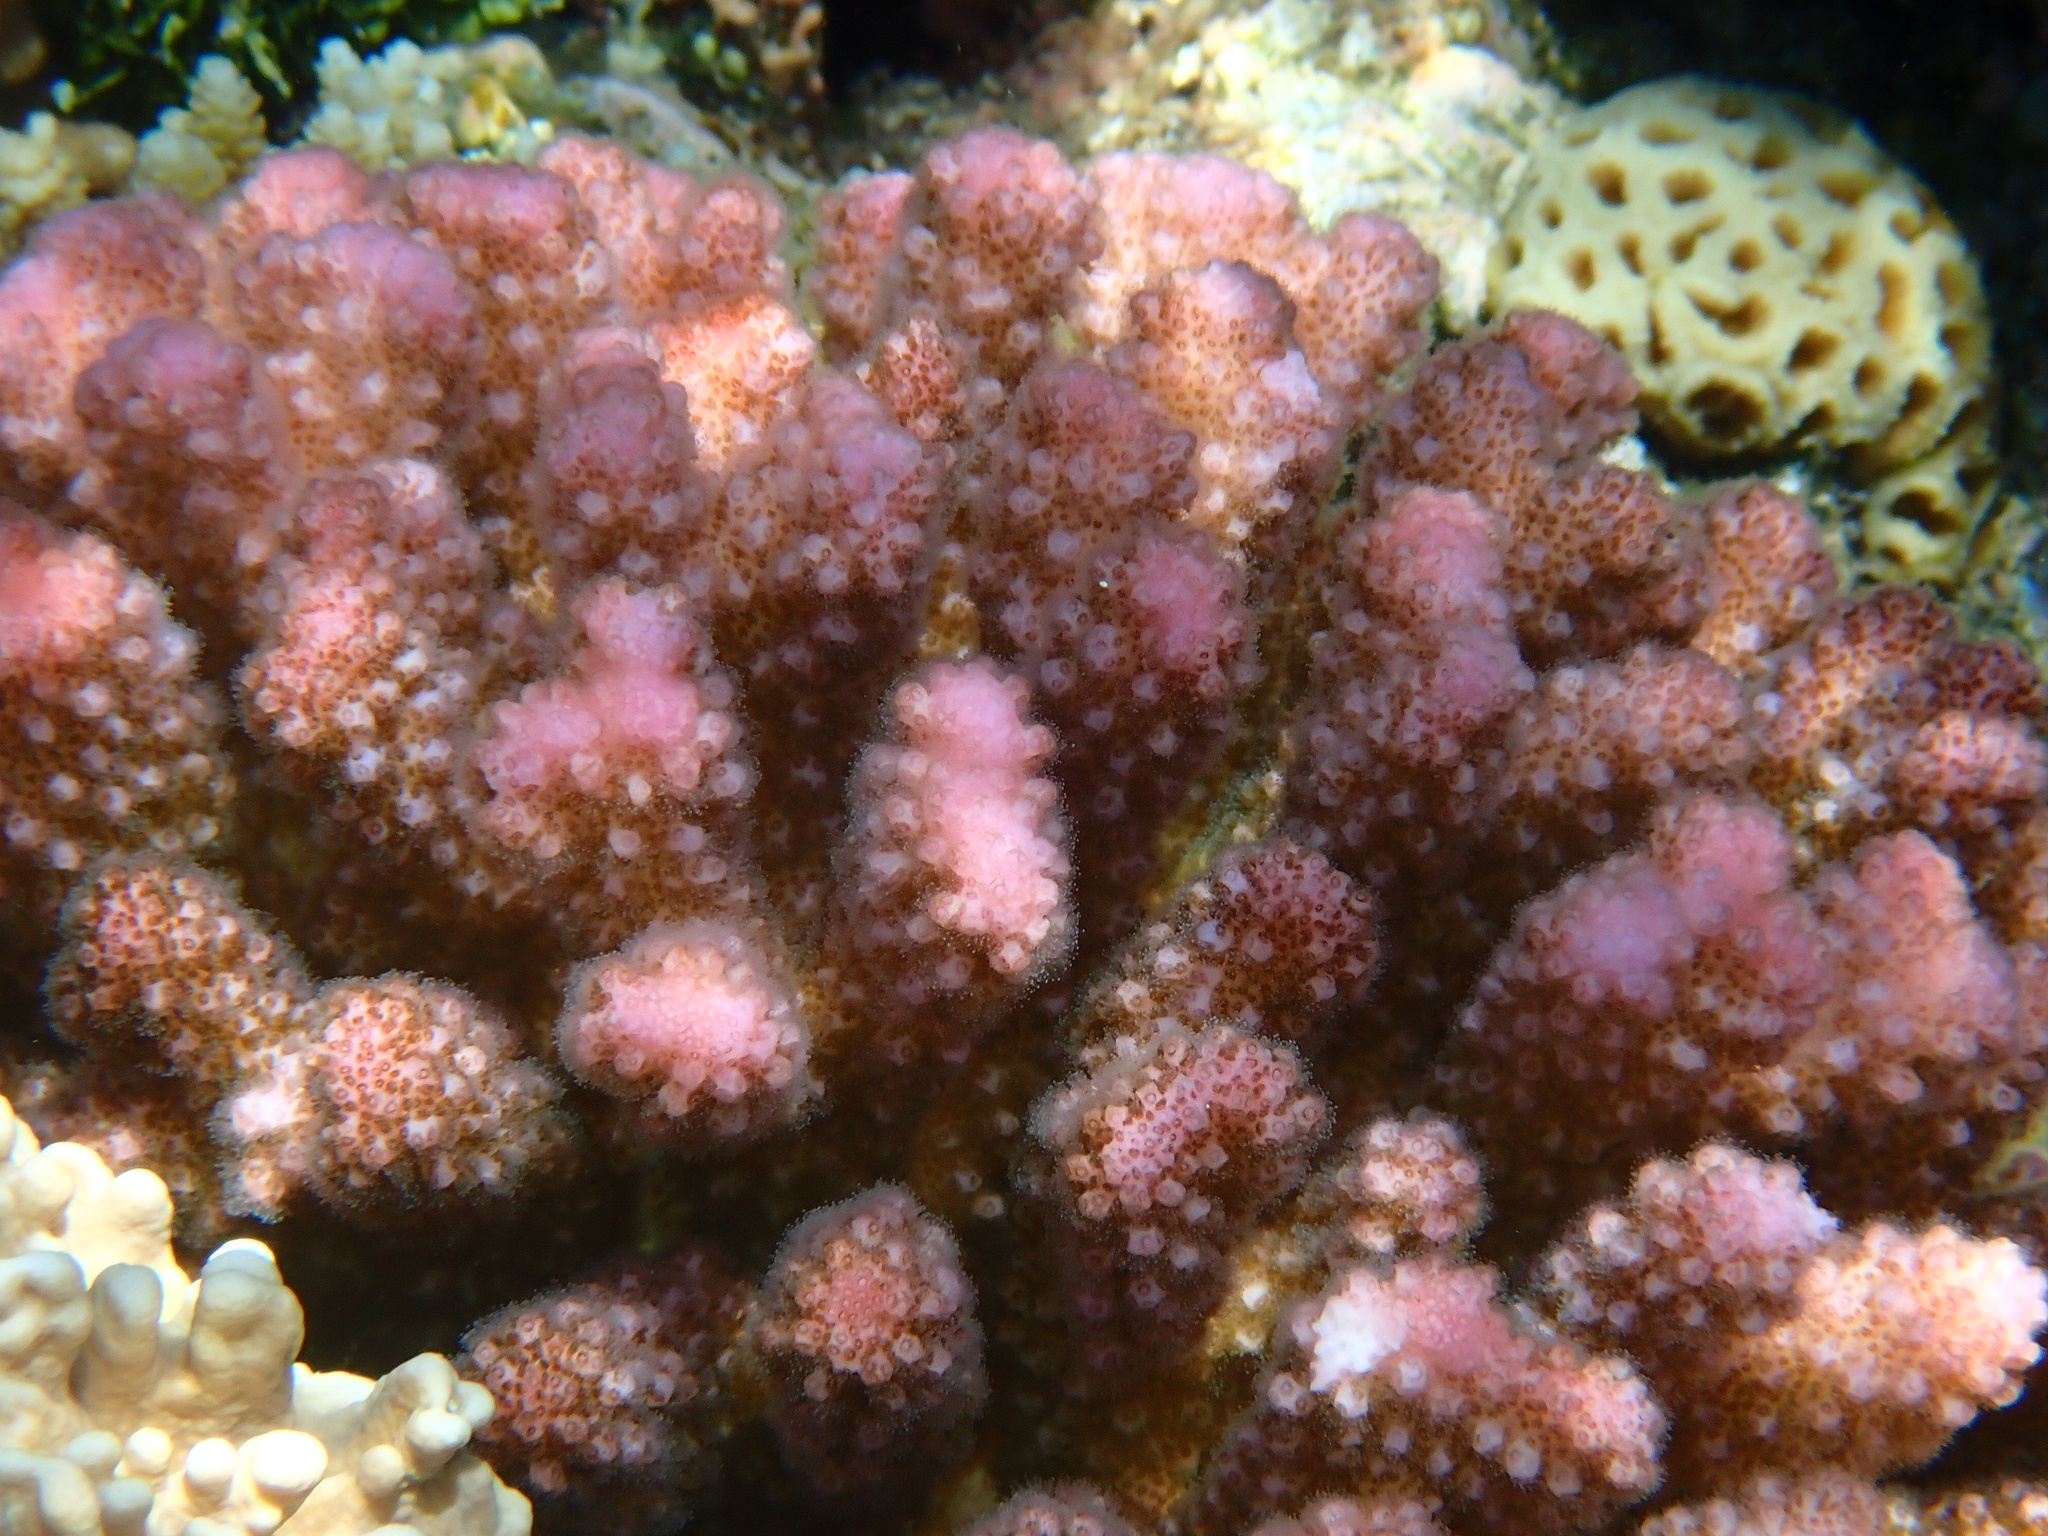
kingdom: Animalia
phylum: Cnidaria
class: Anthozoa
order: Scleractinia
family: Pocilloporidae
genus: Pocillopora
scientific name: Pocillopora verrucosa
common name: Cauliflower coral
